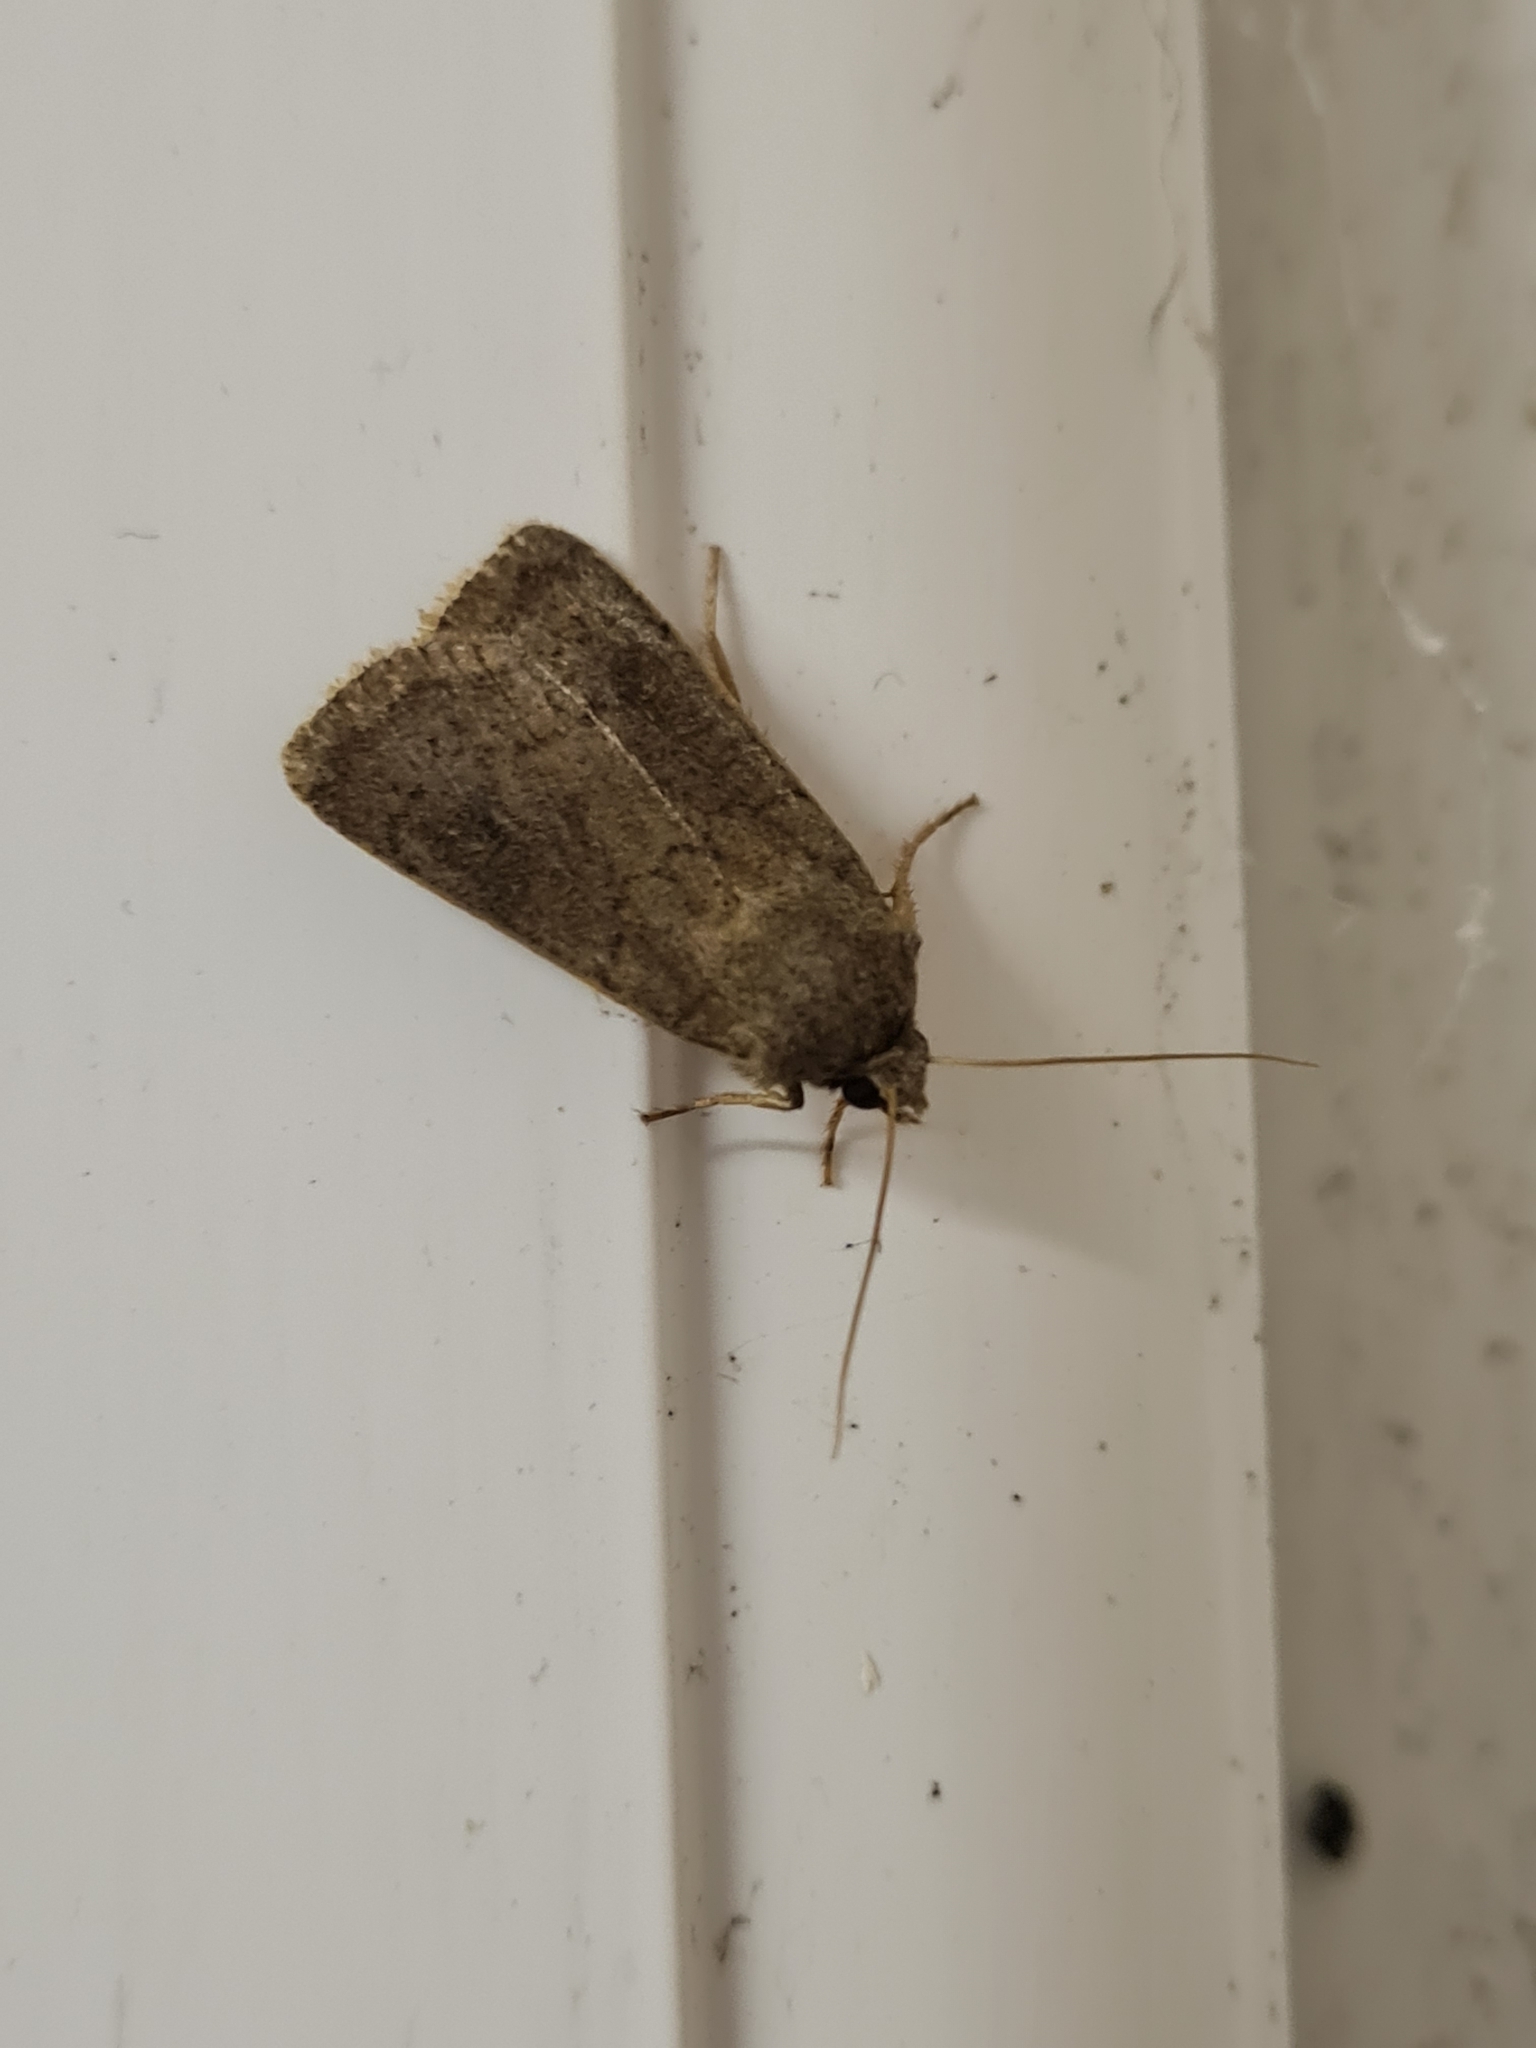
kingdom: Animalia
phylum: Arthropoda
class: Insecta
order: Lepidoptera
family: Noctuidae
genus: Xestia
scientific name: Xestia xanthographa
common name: Square-spot rustic
